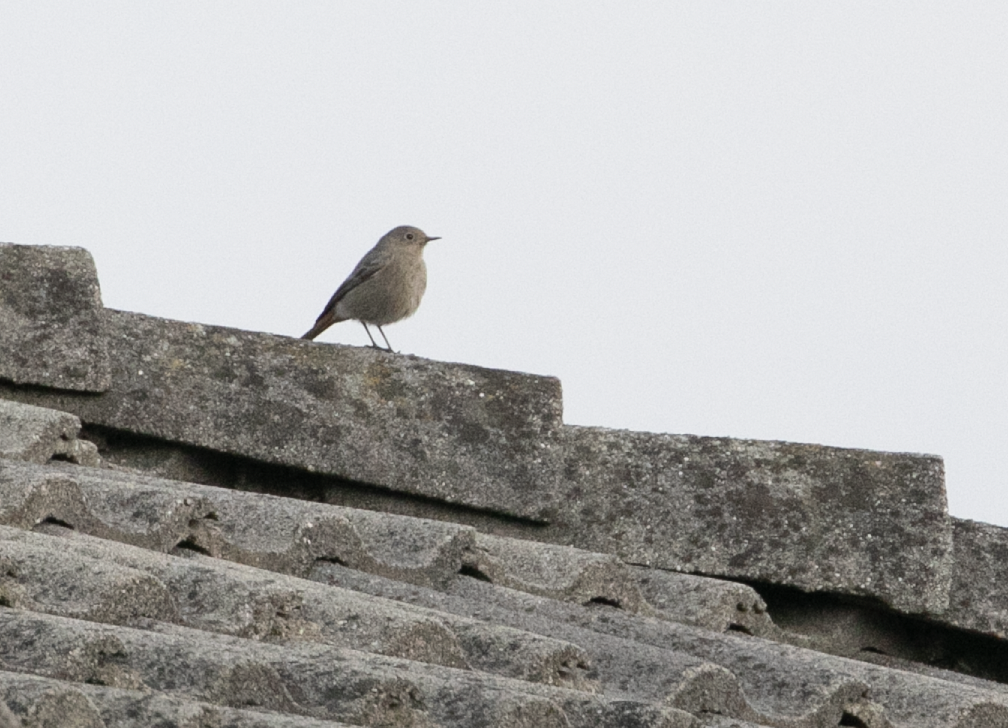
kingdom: Animalia
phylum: Chordata
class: Aves
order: Passeriformes
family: Muscicapidae
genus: Phoenicurus
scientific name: Phoenicurus ochruros
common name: Black redstart
